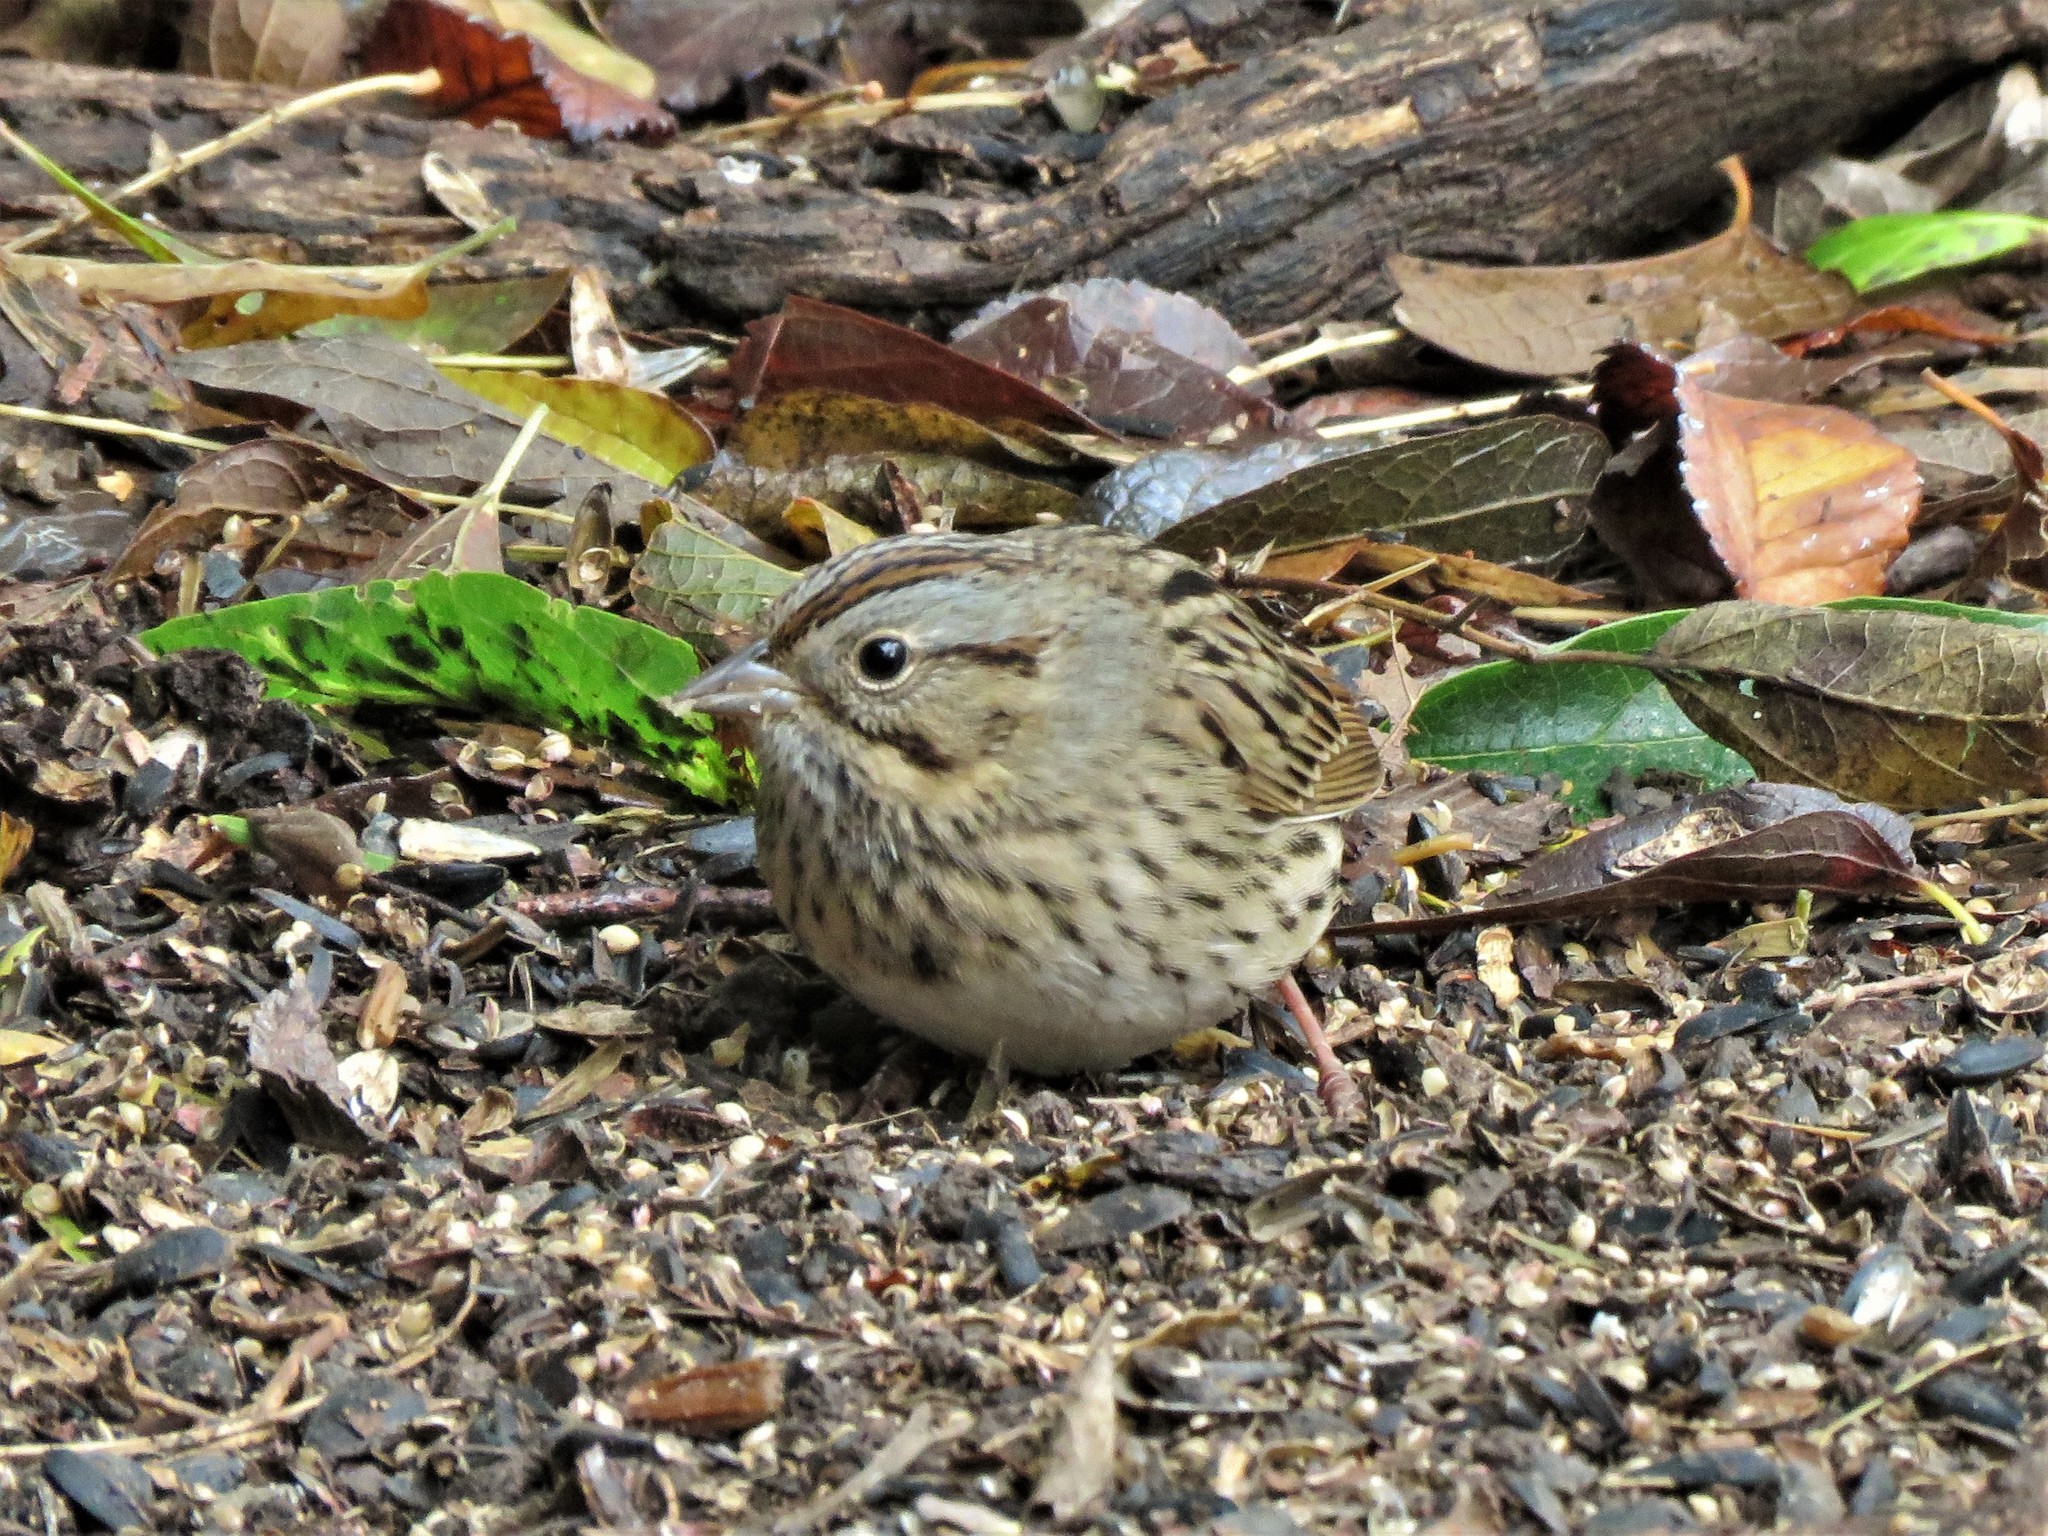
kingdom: Animalia
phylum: Chordata
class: Aves
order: Passeriformes
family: Passerellidae
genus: Melospiza
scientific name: Melospiza lincolnii
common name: Lincoln's sparrow
